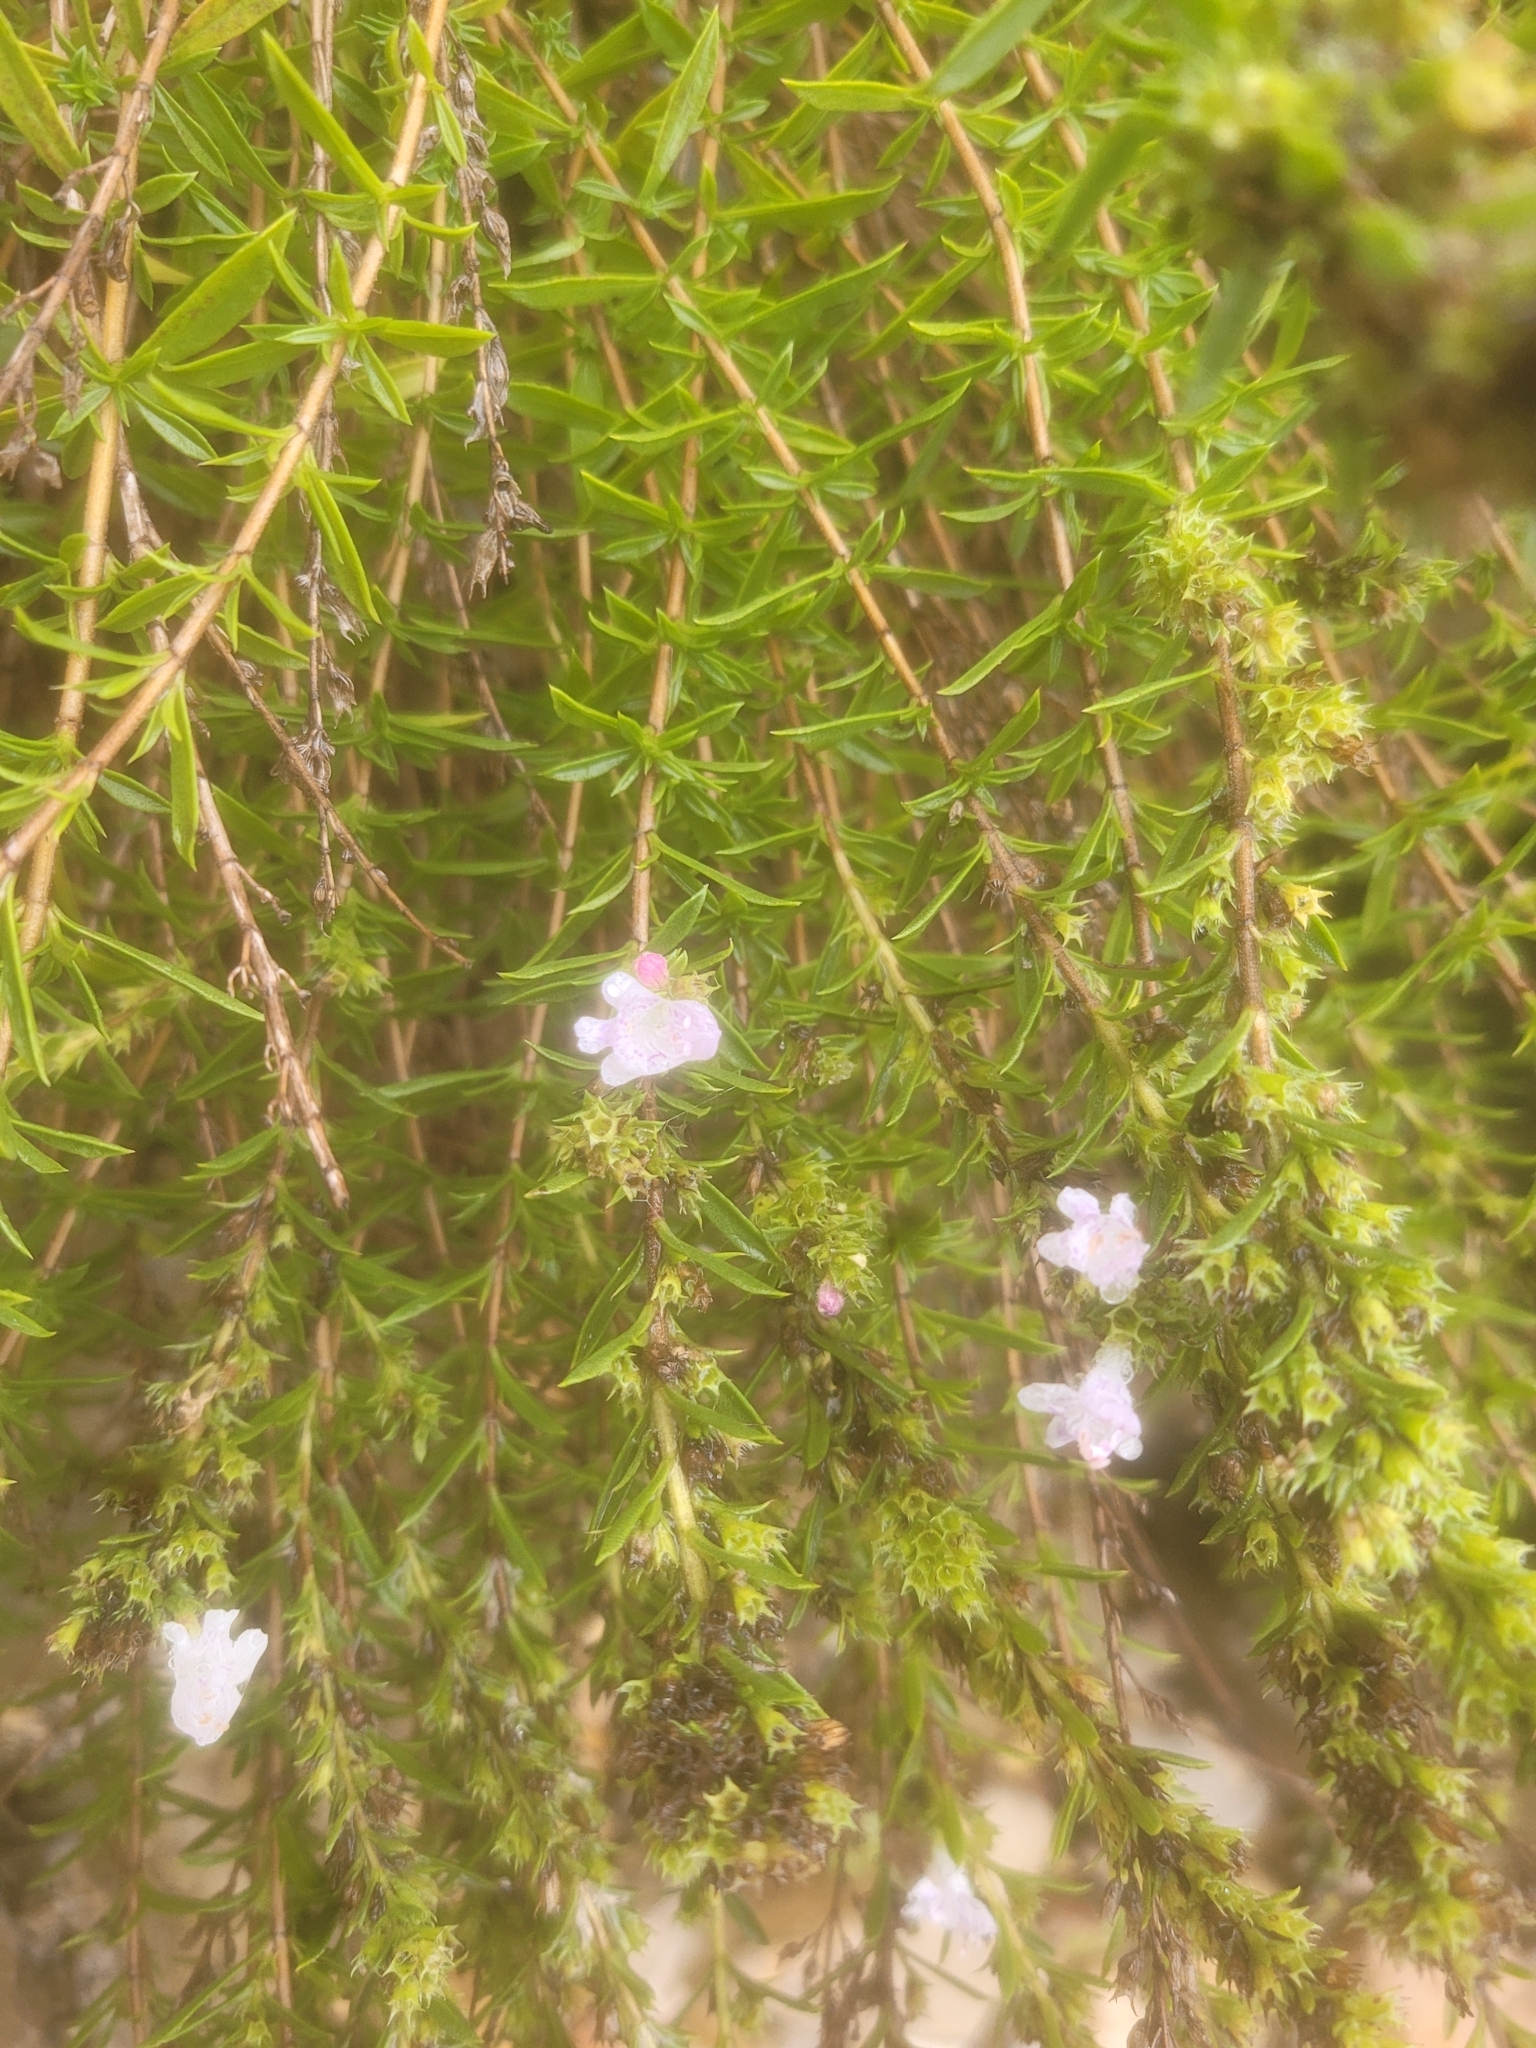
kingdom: Plantae
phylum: Tracheophyta
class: Magnoliopsida
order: Lamiales
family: Lamiaceae
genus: Satureja
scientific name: Satureja montana
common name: Winter savory
